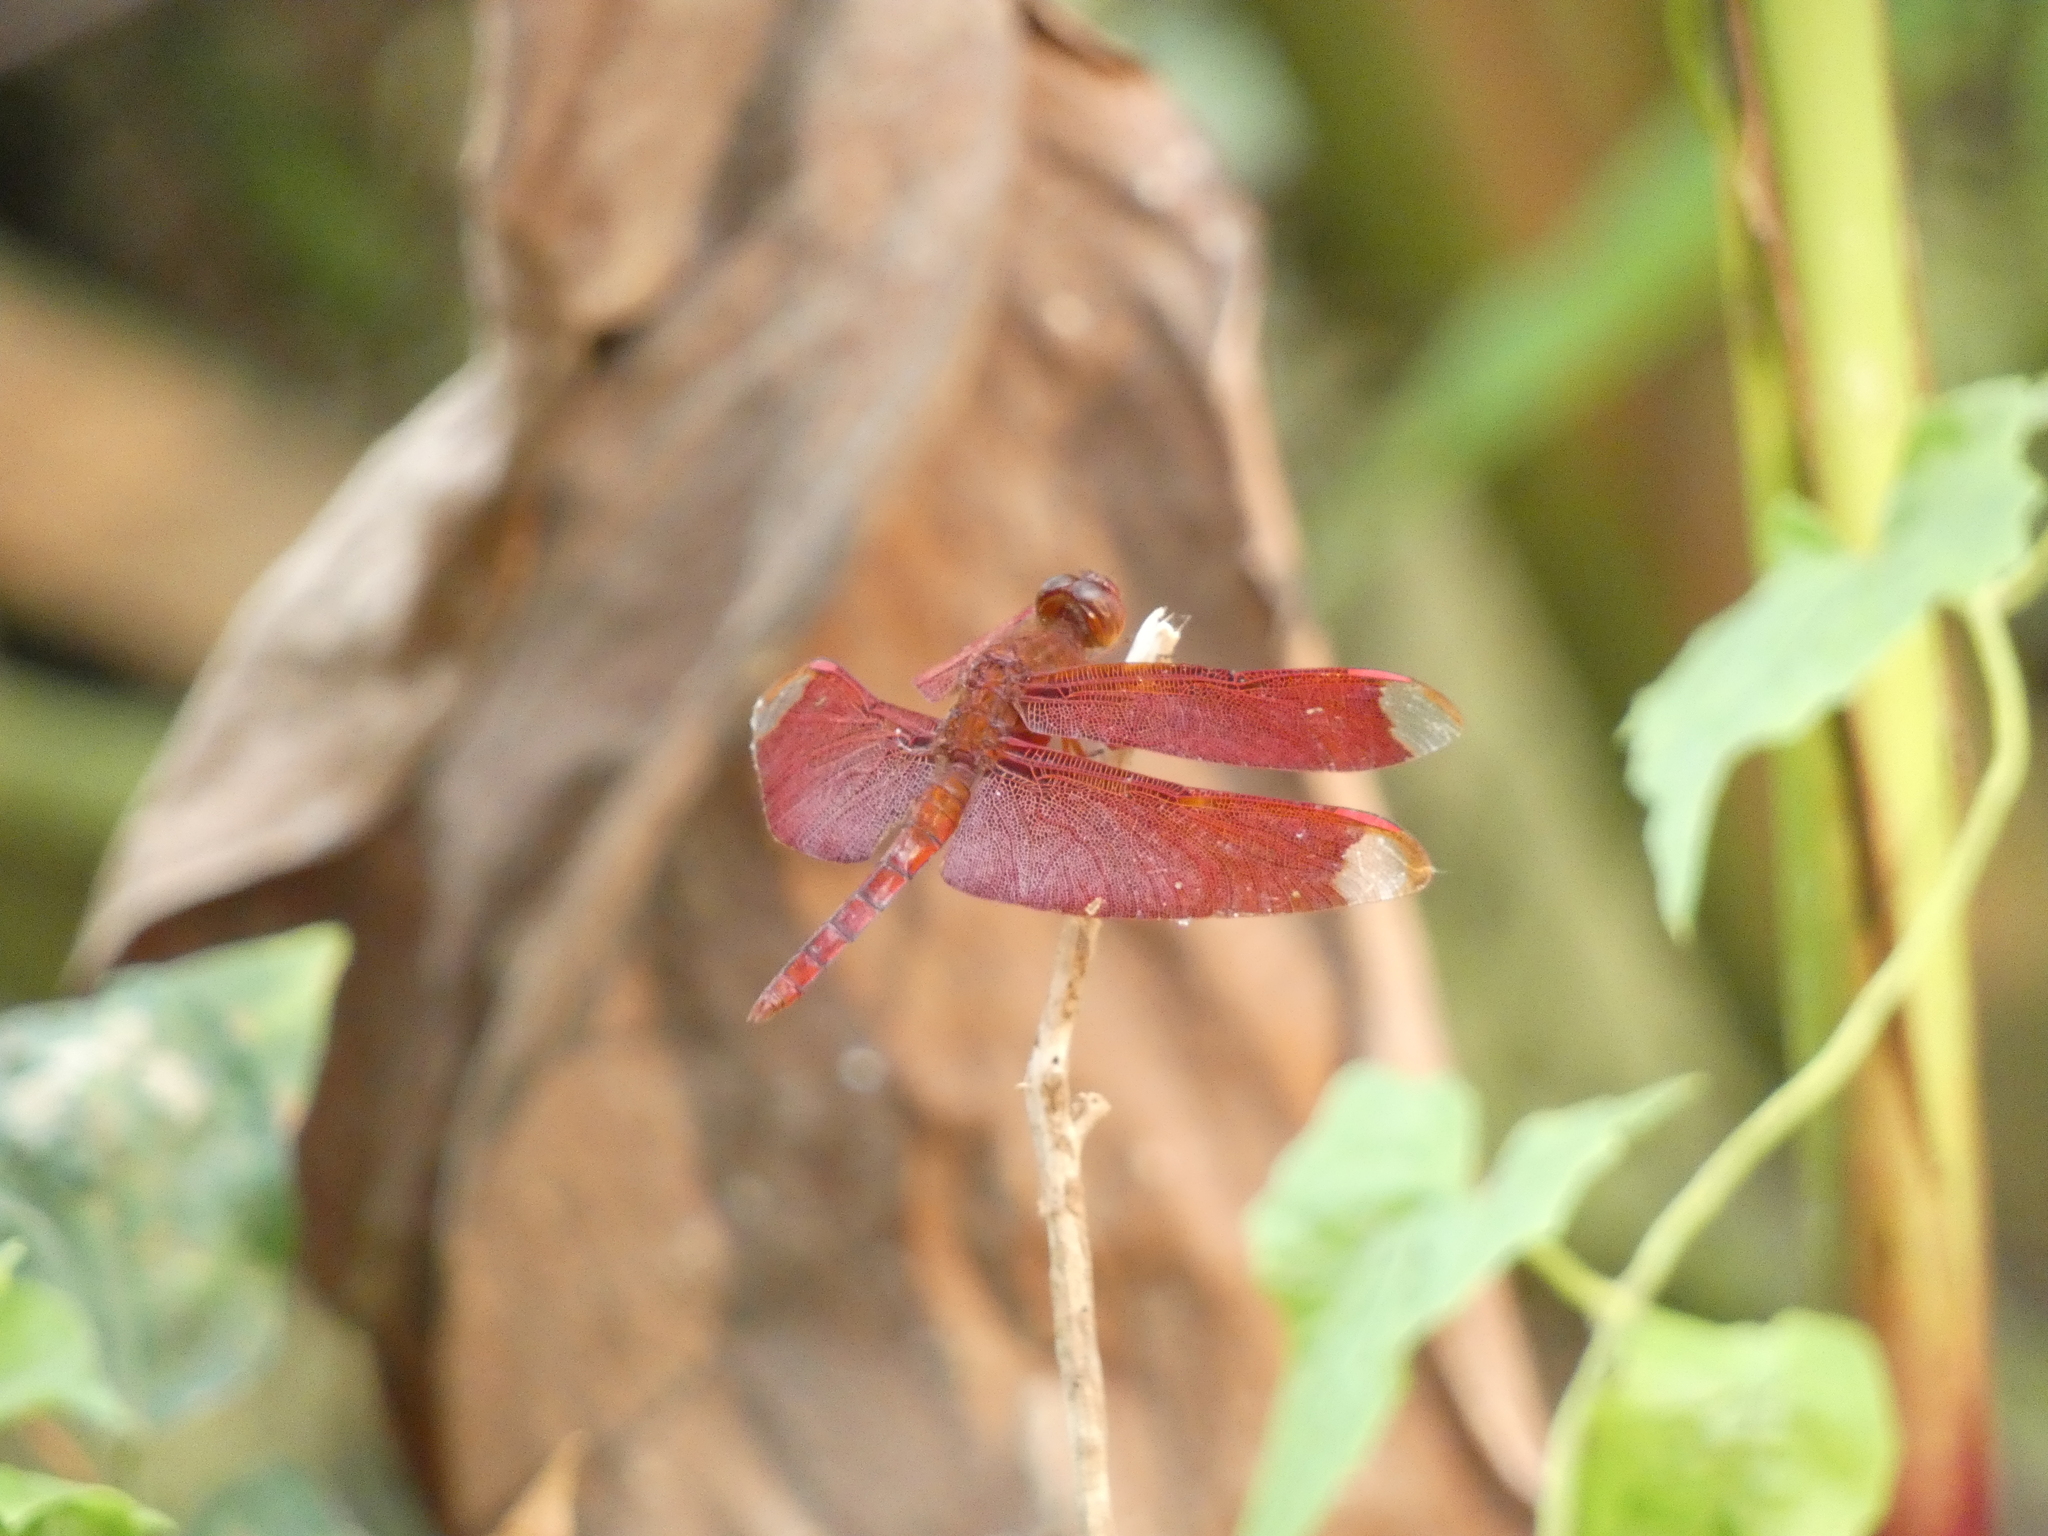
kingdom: Animalia
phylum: Arthropoda
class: Insecta
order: Odonata
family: Libellulidae
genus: Neurothemis
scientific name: Neurothemis fulvia
